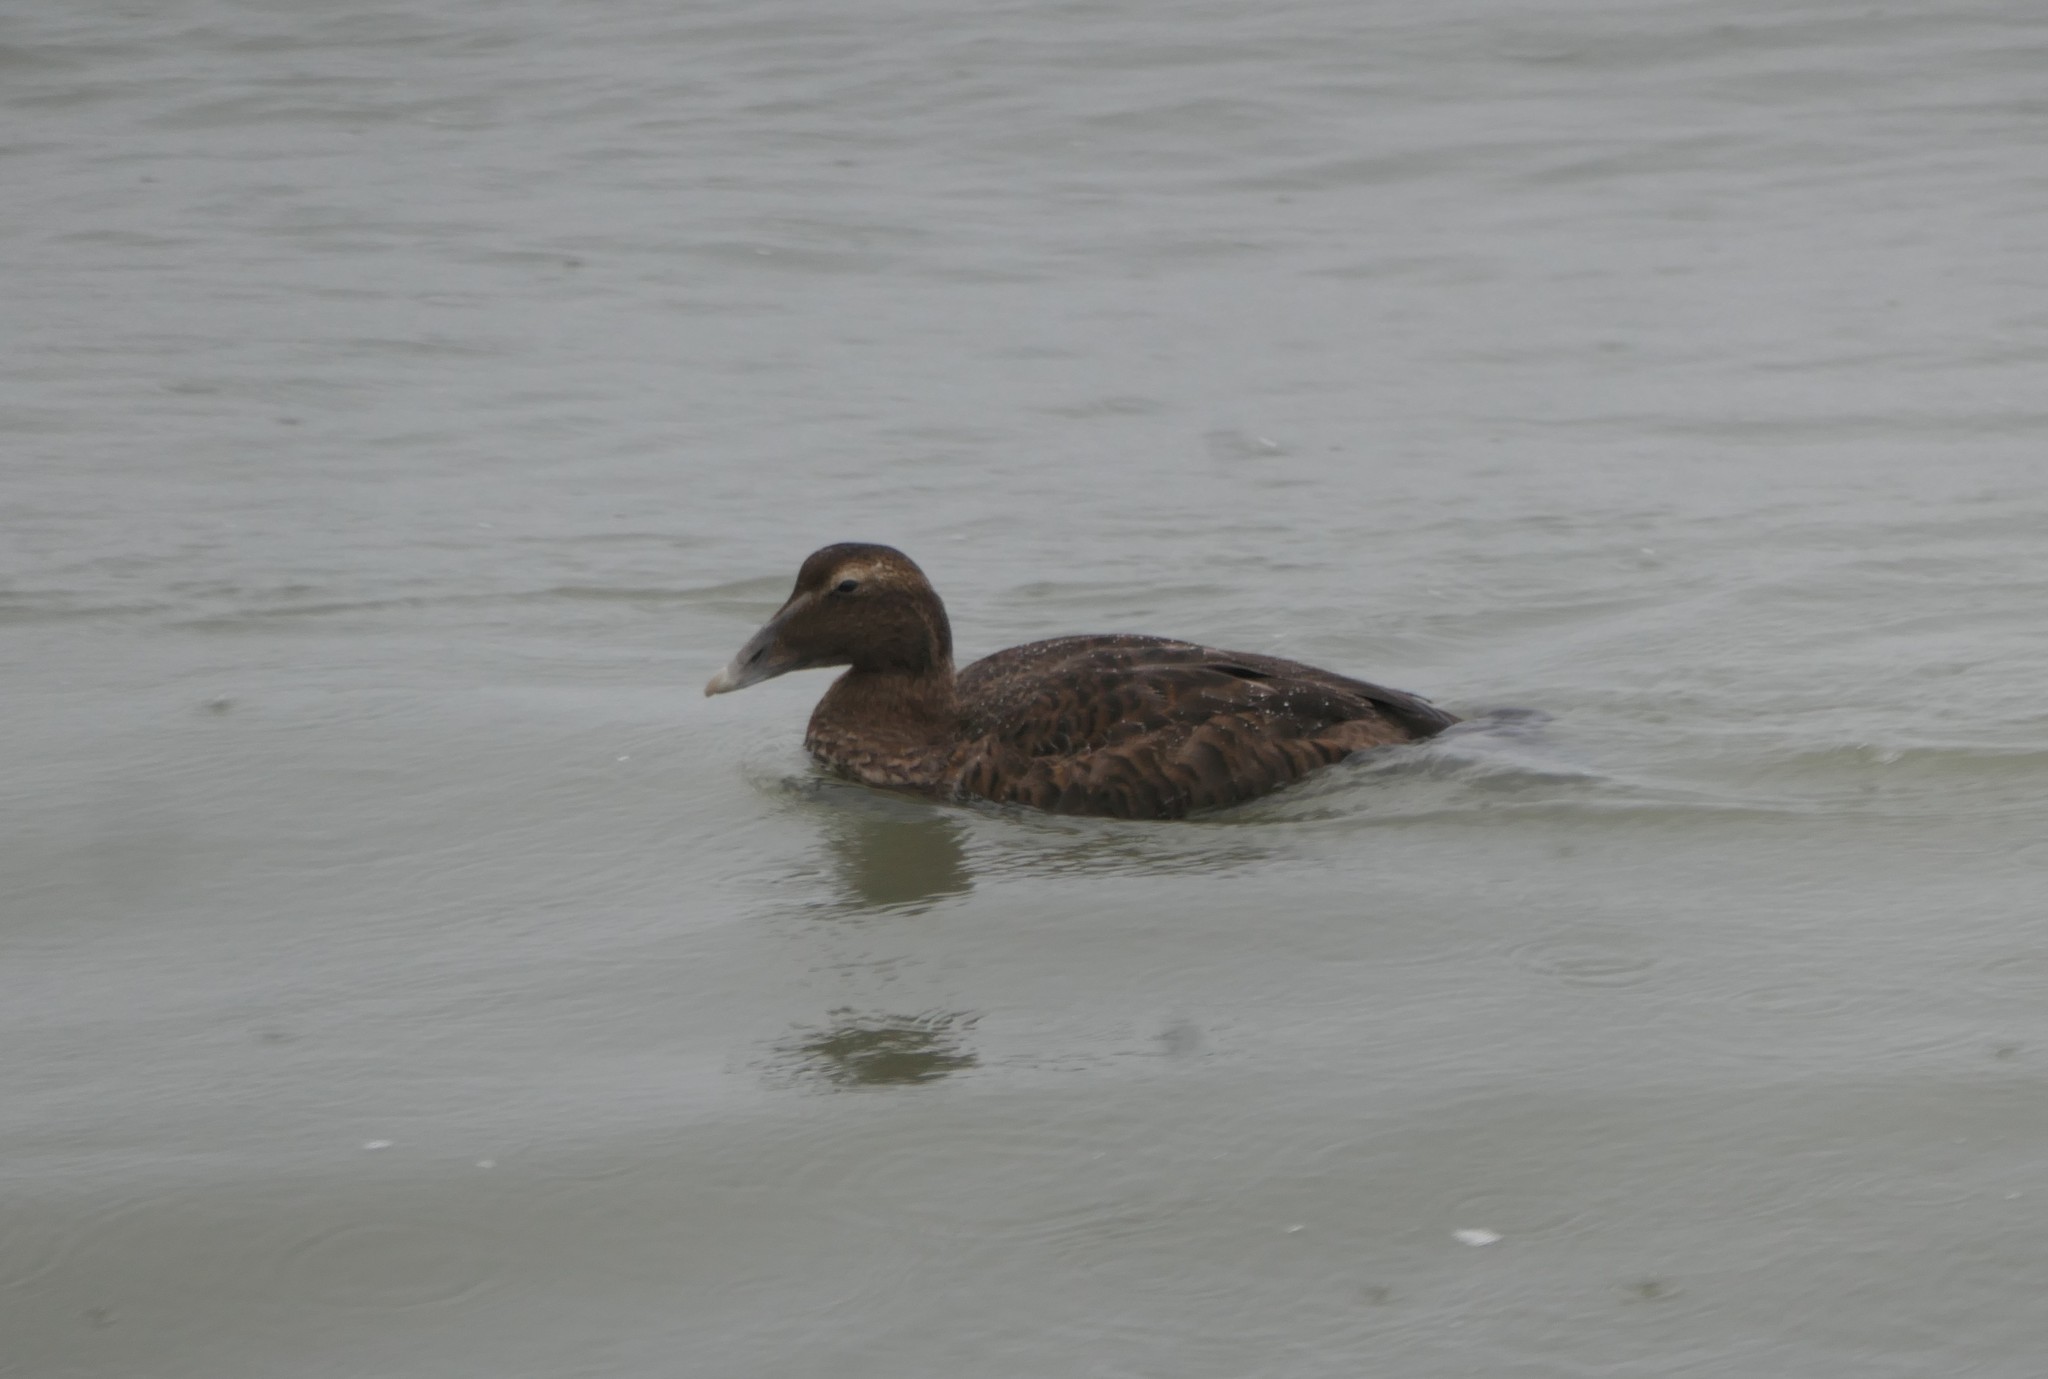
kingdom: Animalia
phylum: Chordata
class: Aves
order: Anseriformes
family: Anatidae
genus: Somateria
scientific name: Somateria mollissima
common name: Common eider
